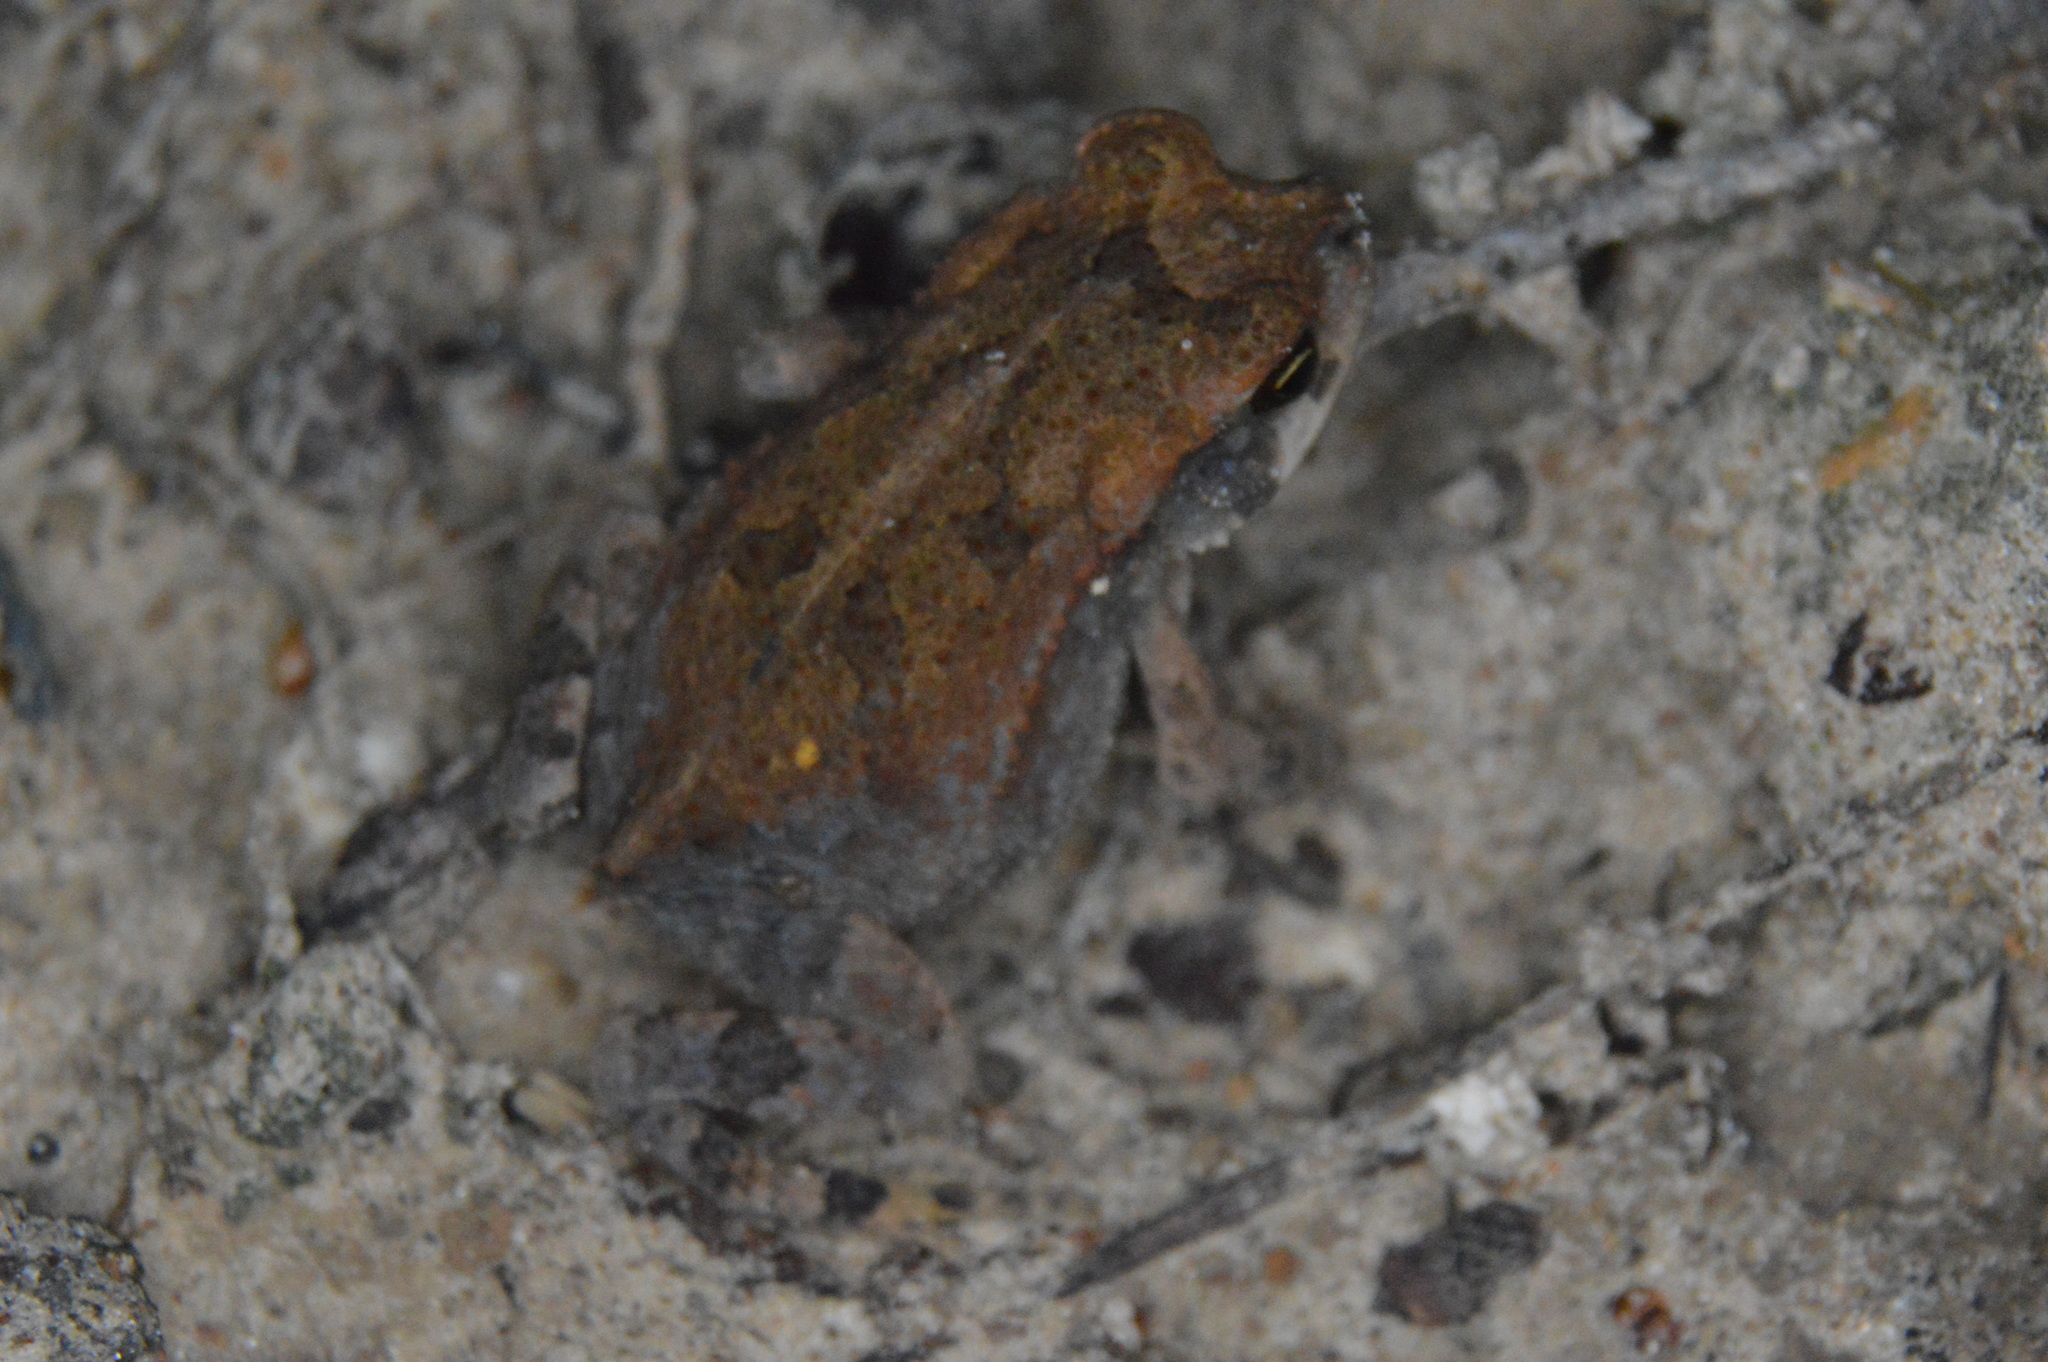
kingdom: Animalia
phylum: Chordata
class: Amphibia
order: Anura
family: Bufonidae
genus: Incilius
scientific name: Incilius nebulifer
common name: Gulf coast toad
